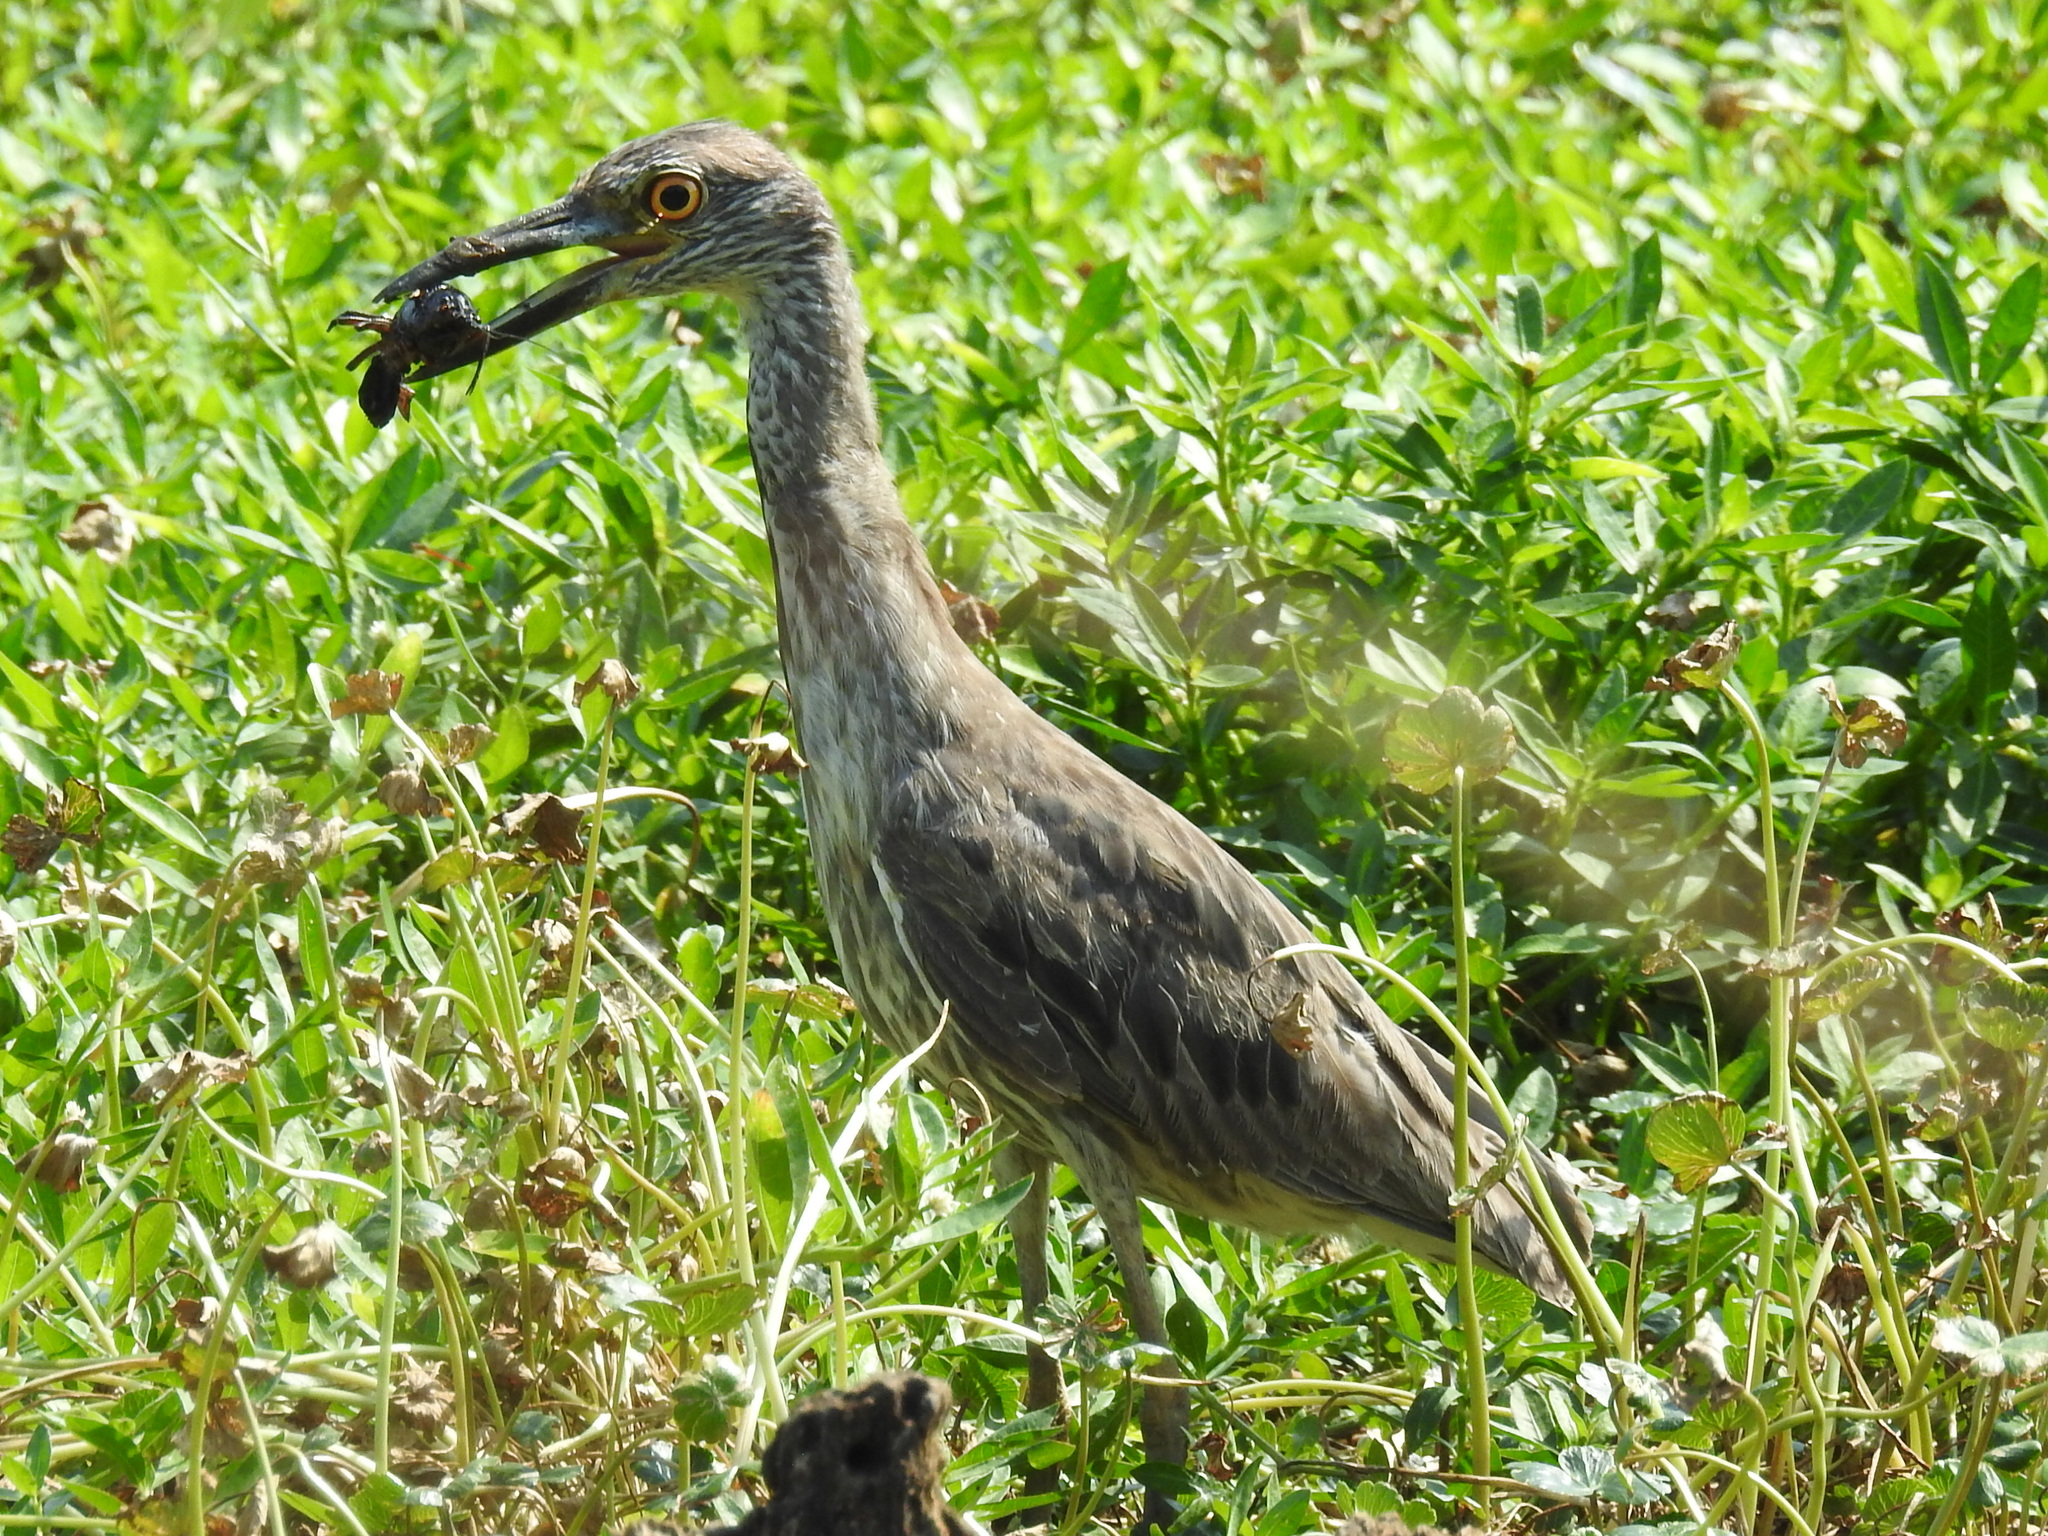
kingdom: Animalia
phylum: Chordata
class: Aves
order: Pelecaniformes
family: Ardeidae
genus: Nyctanassa
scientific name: Nyctanassa violacea
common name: Yellow-crowned night heron
